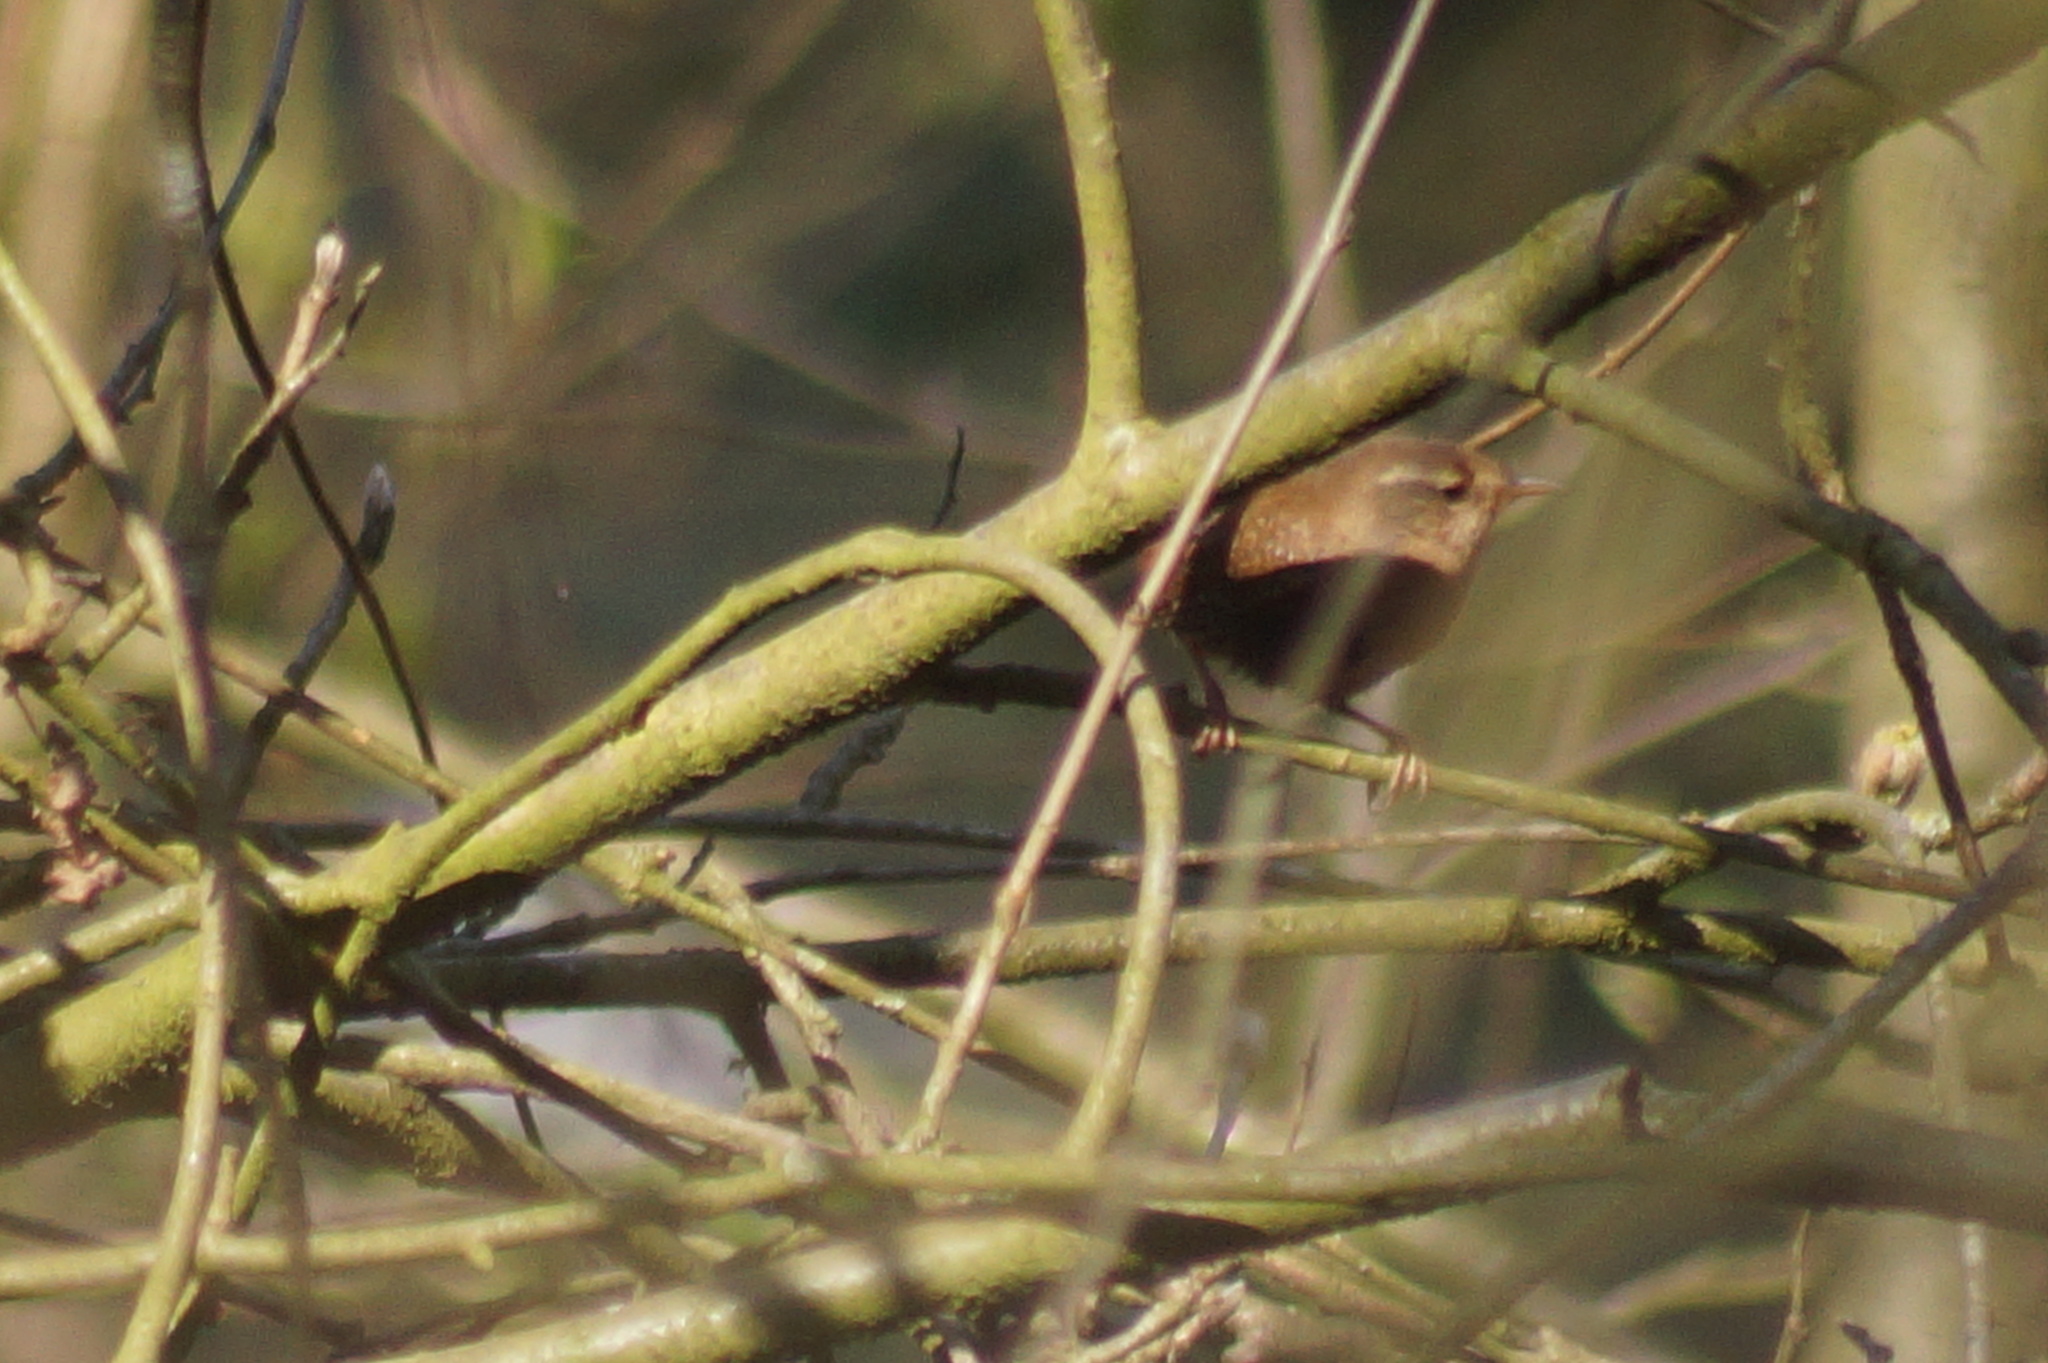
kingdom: Animalia
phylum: Chordata
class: Aves
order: Passeriformes
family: Troglodytidae
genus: Troglodytes
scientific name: Troglodytes troglodytes
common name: Eurasian wren
